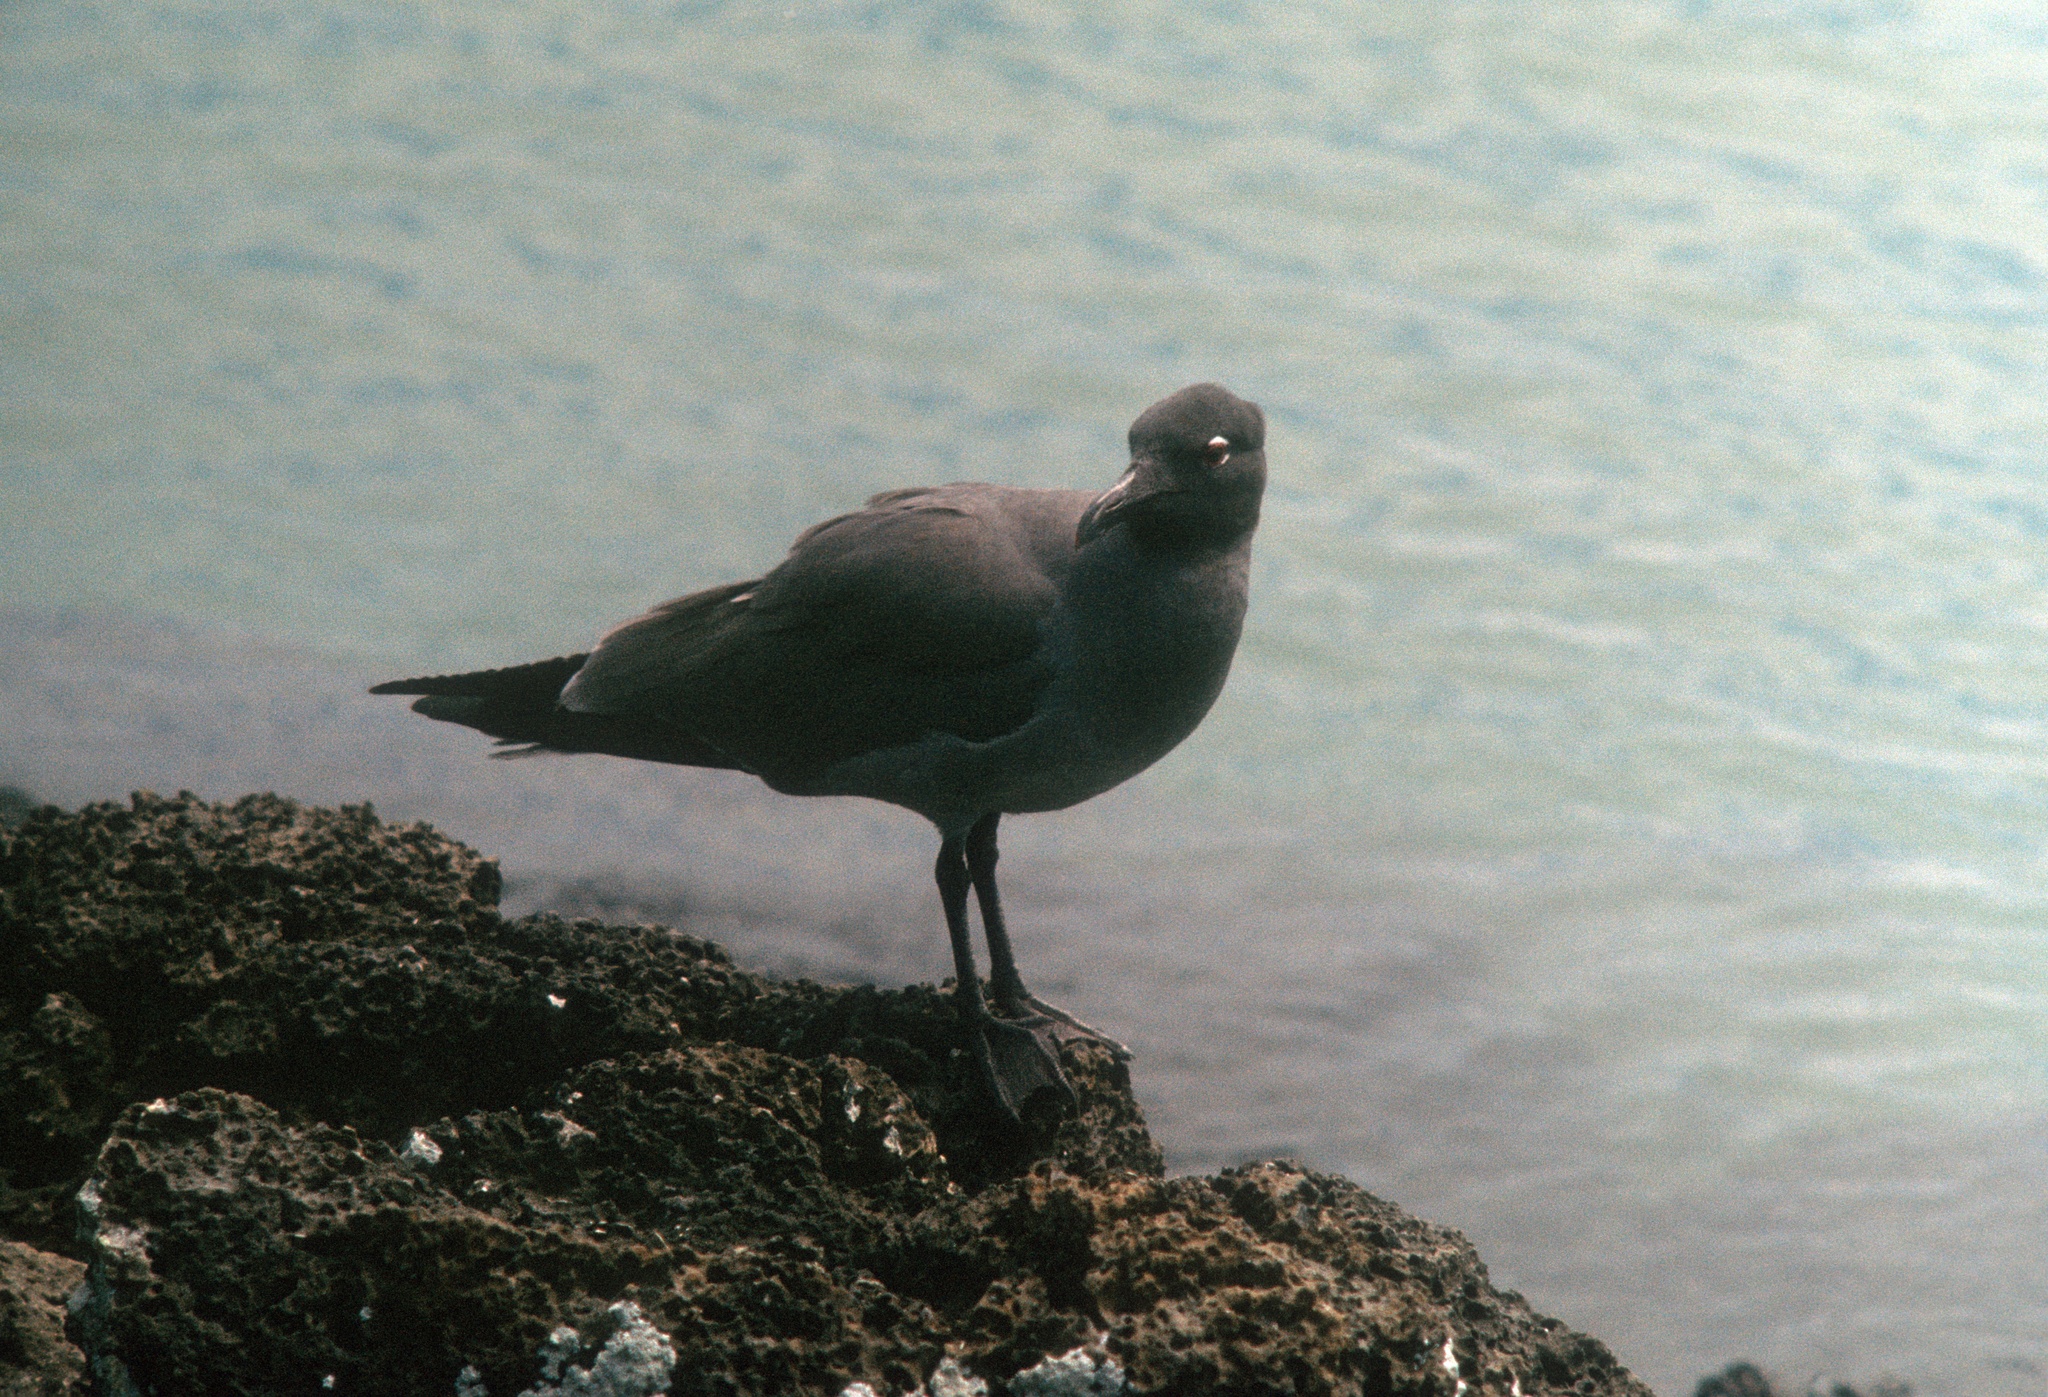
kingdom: Animalia
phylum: Chordata
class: Aves
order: Charadriiformes
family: Laridae
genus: Leucophaeus
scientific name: Leucophaeus fuliginosus
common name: Lava gull
